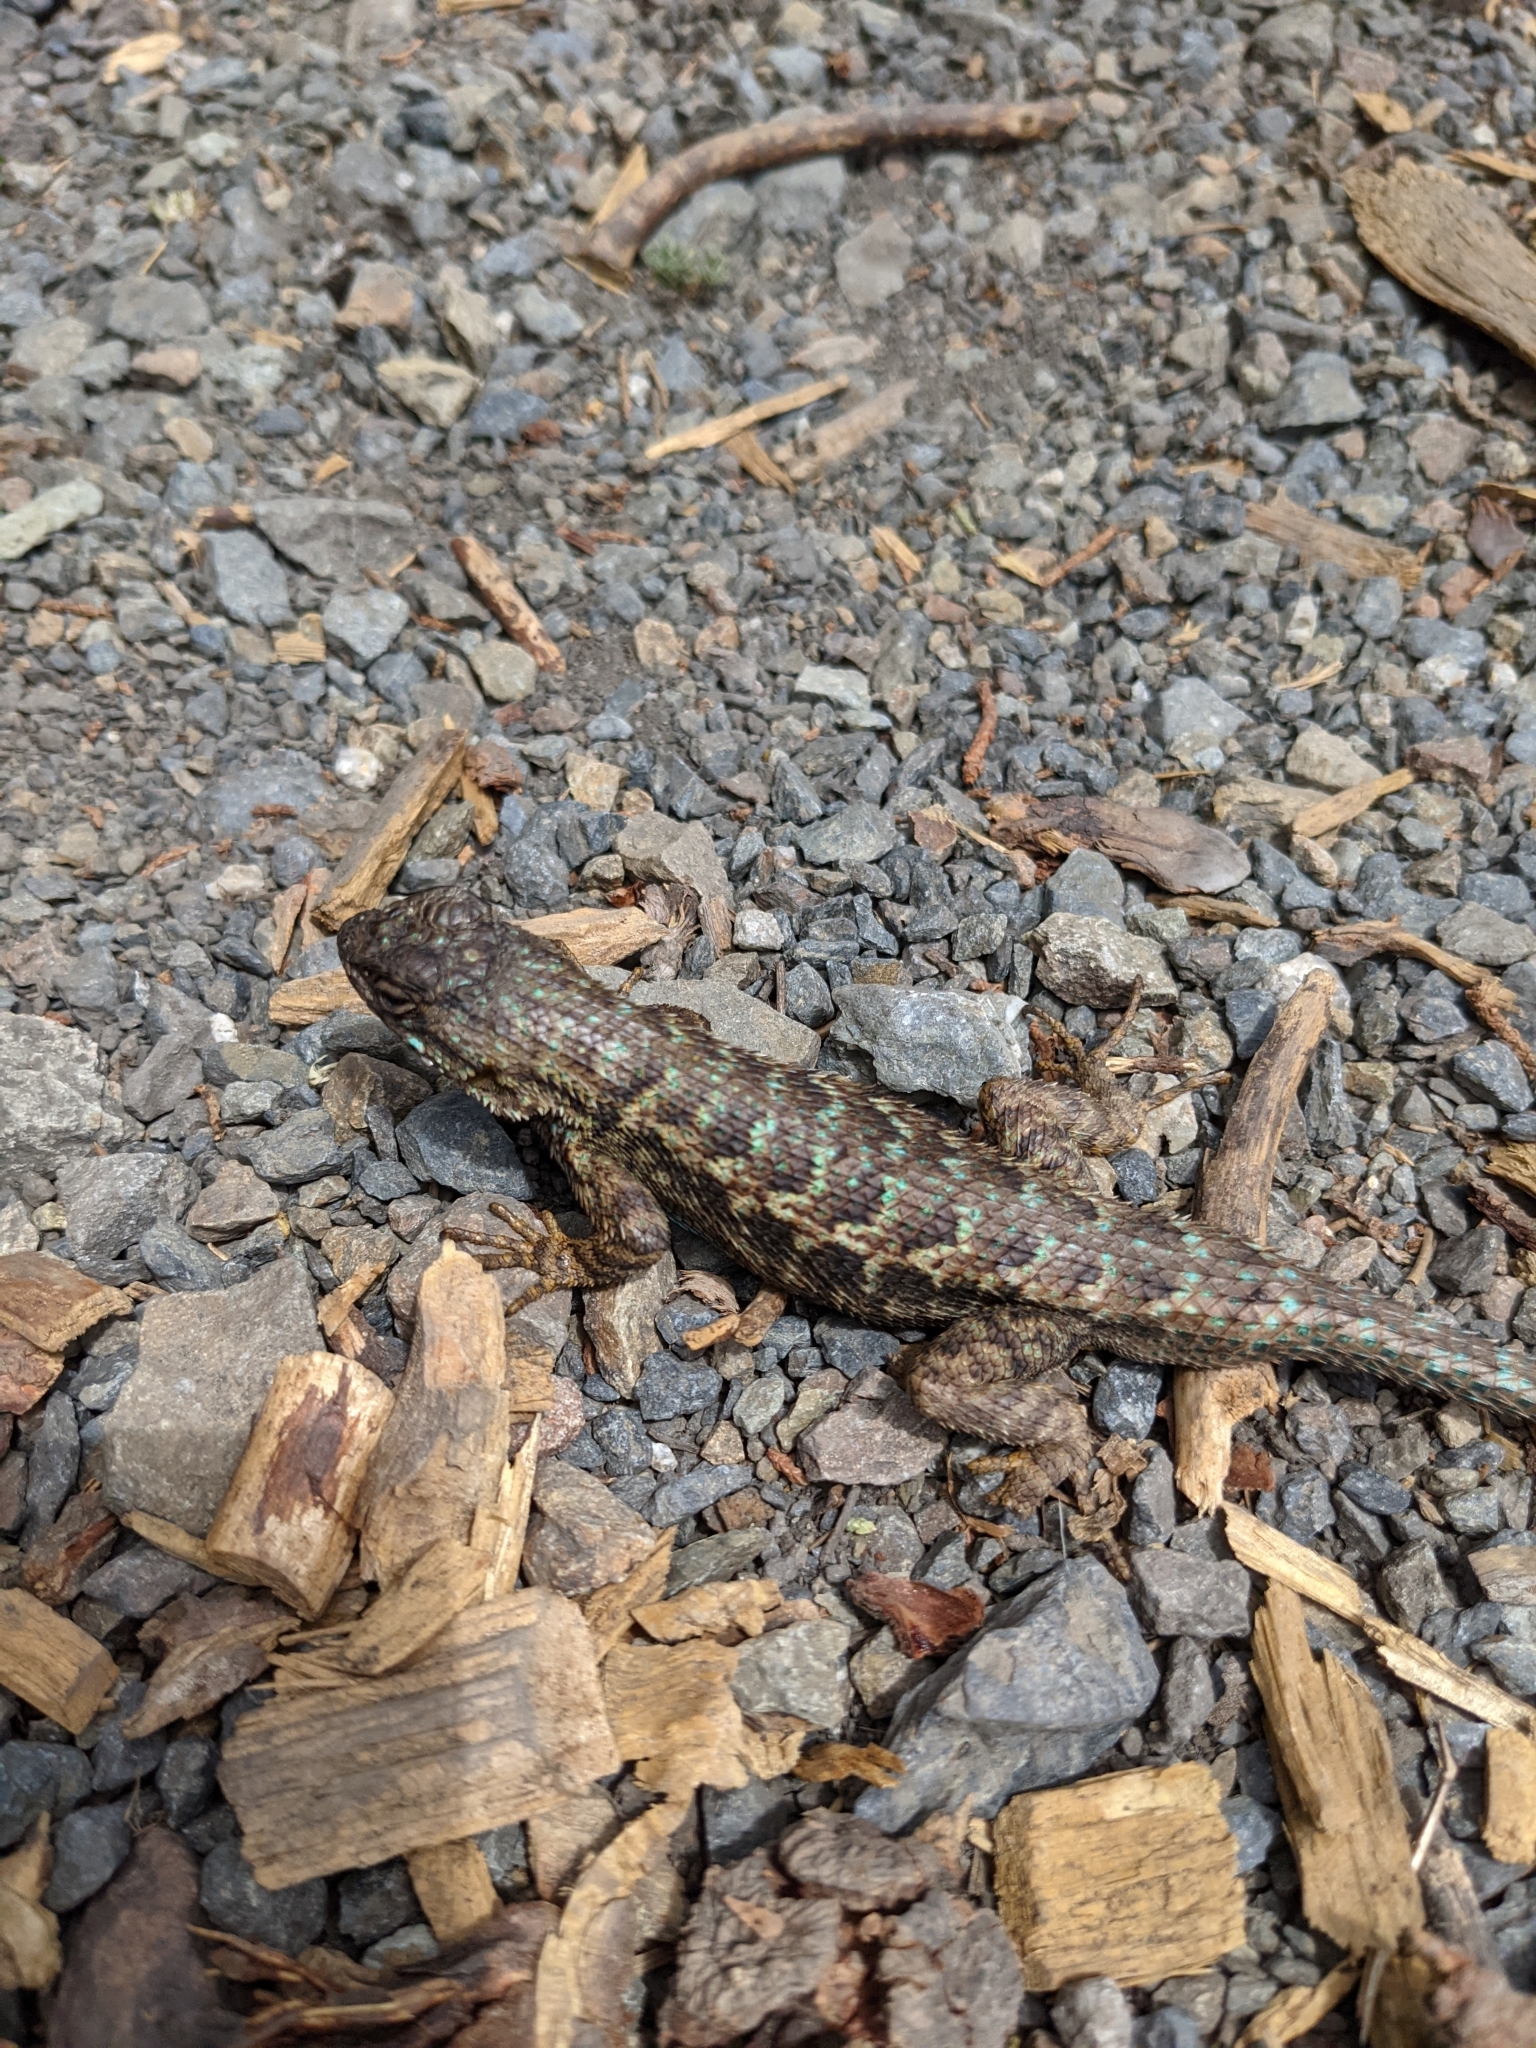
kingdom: Animalia
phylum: Chordata
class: Squamata
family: Phrynosomatidae
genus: Sceloporus
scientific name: Sceloporus occidentalis
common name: Western fence lizard
